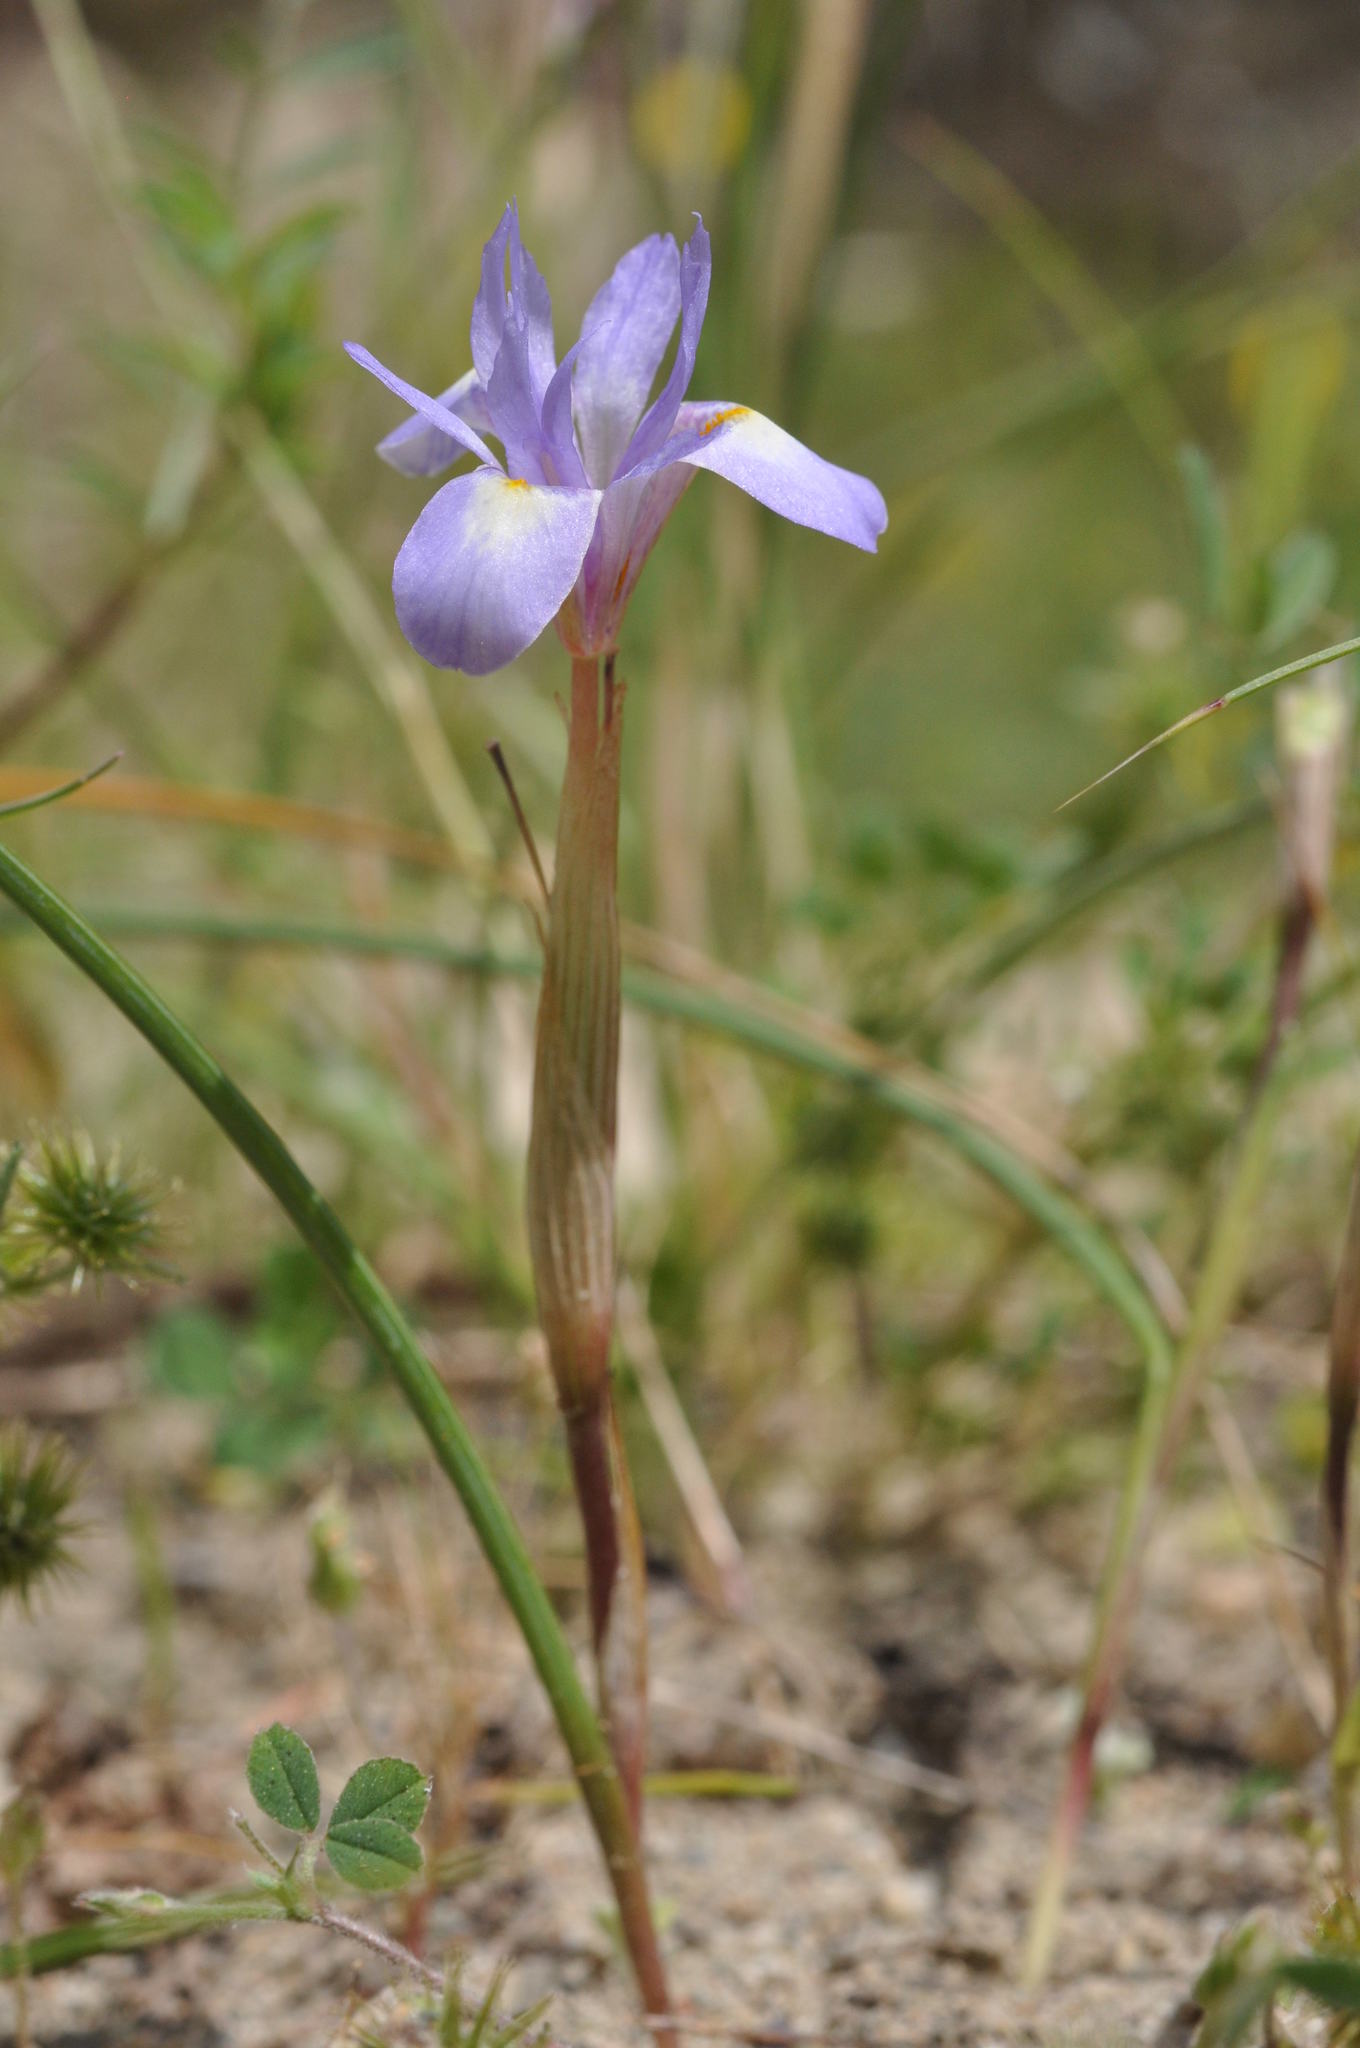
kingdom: Plantae
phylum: Tracheophyta
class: Liliopsida
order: Asparagales
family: Iridaceae
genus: Moraea
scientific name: Moraea mediterranea
